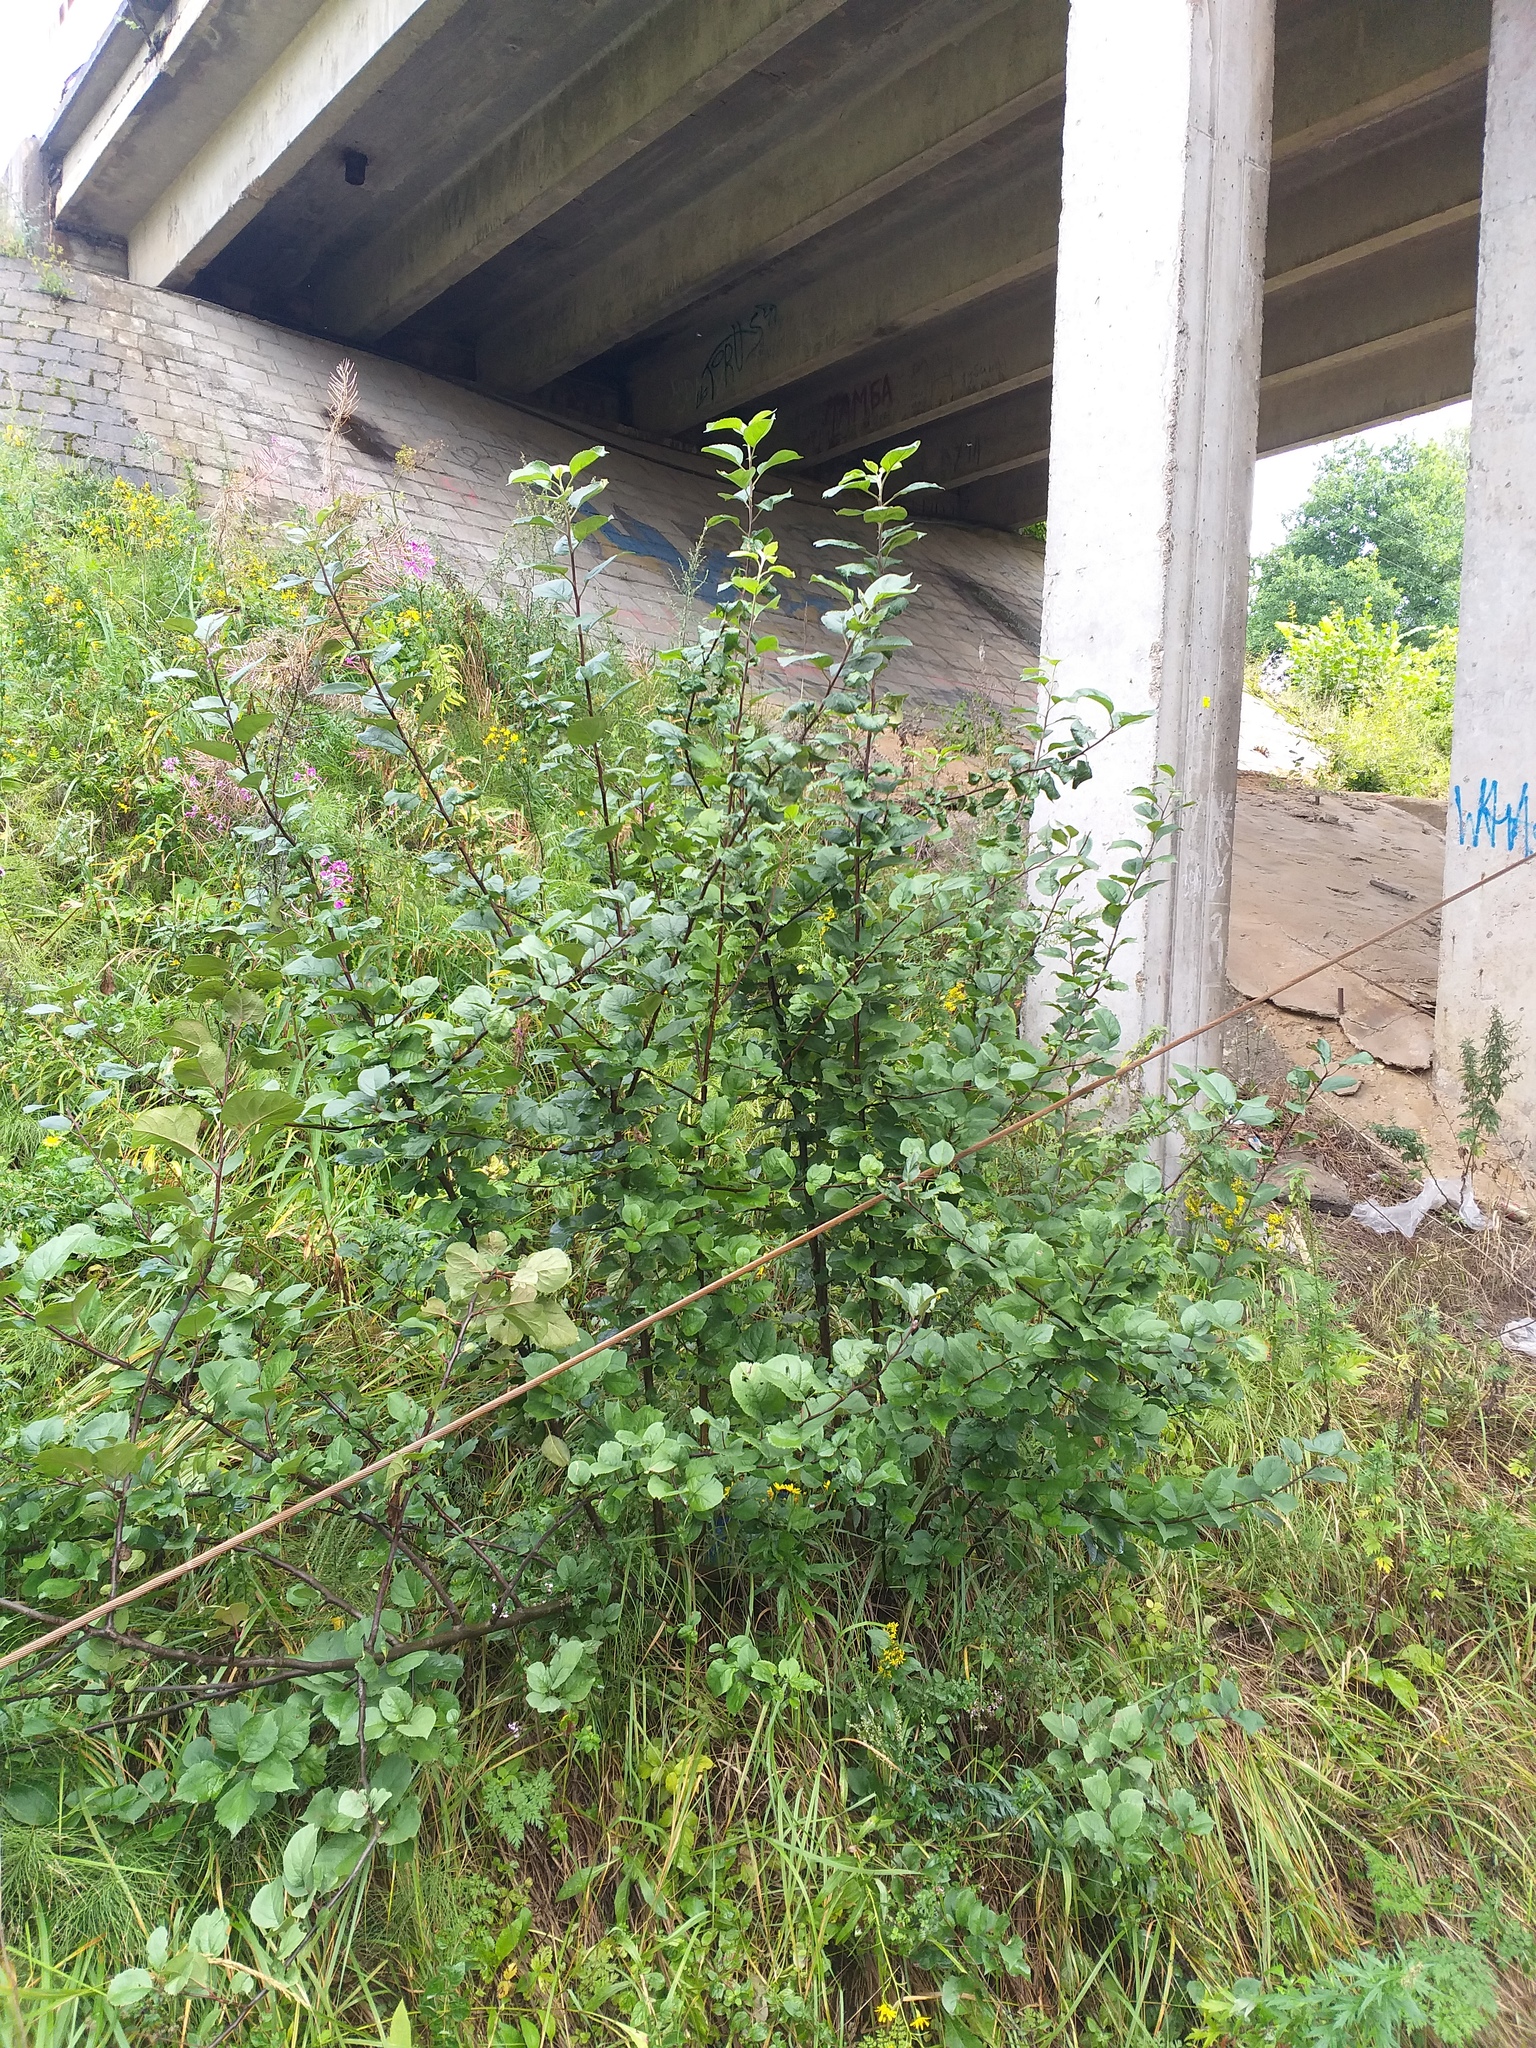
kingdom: Plantae
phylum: Tracheophyta
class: Magnoliopsida
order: Rosales
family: Rosaceae
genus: Malus
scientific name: Malus domestica
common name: Apple
